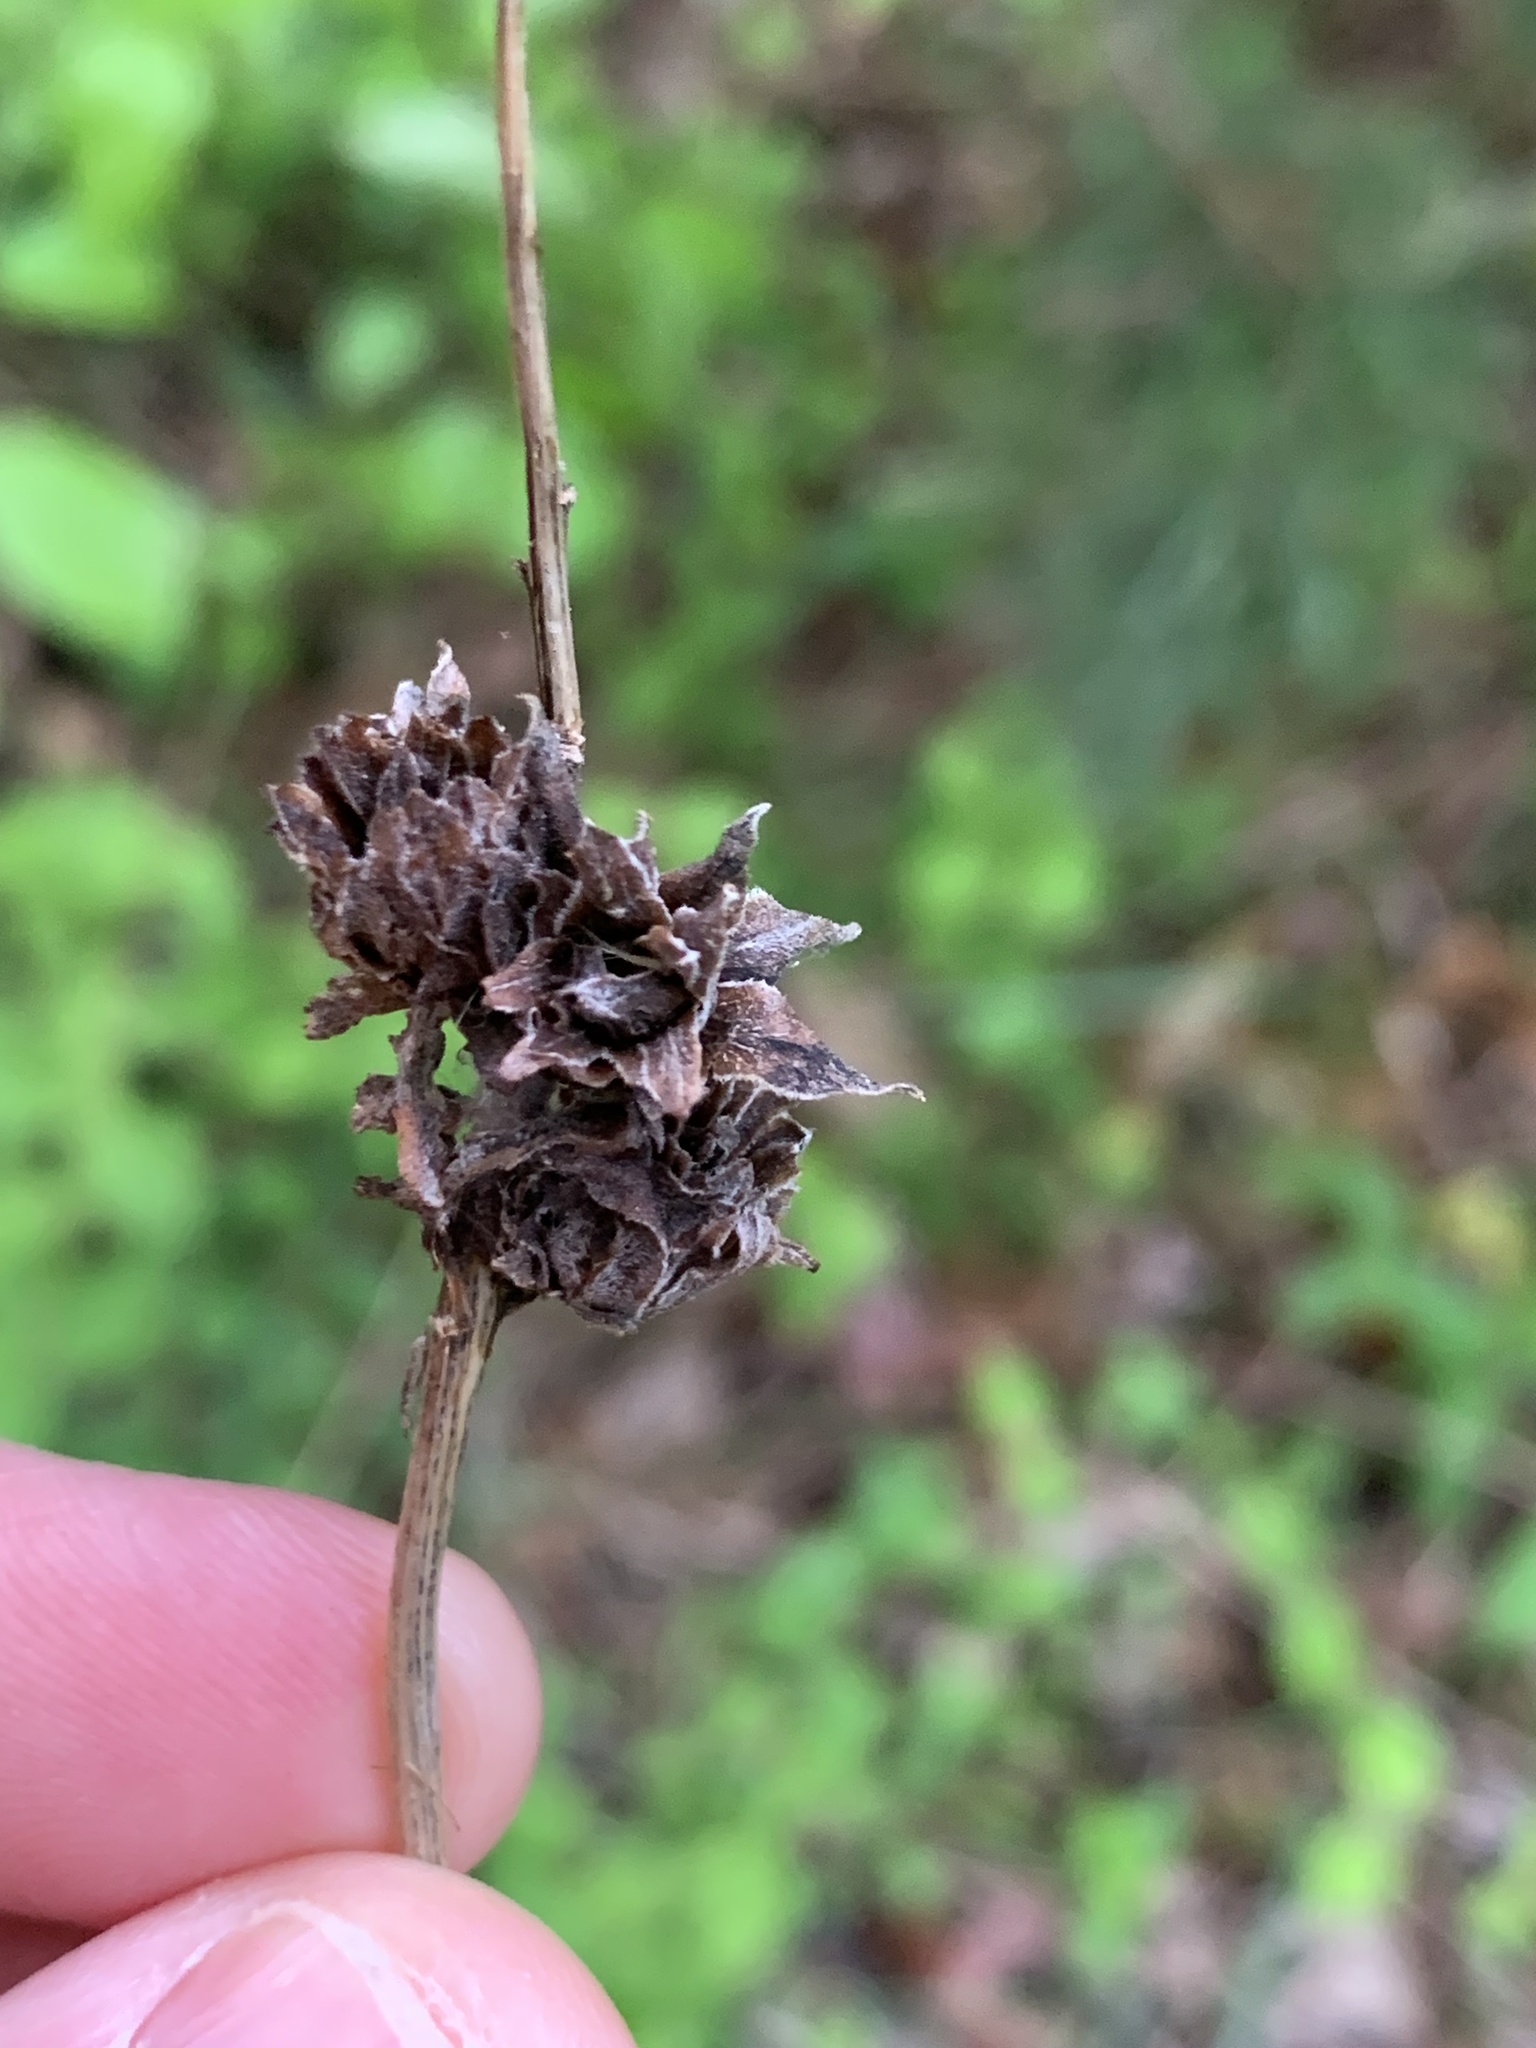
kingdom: Animalia
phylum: Arthropoda
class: Insecta
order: Diptera
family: Tephritidae
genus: Procecidochares
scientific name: Procecidochares atra
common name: Goldenrod brussels sprout gall fly
